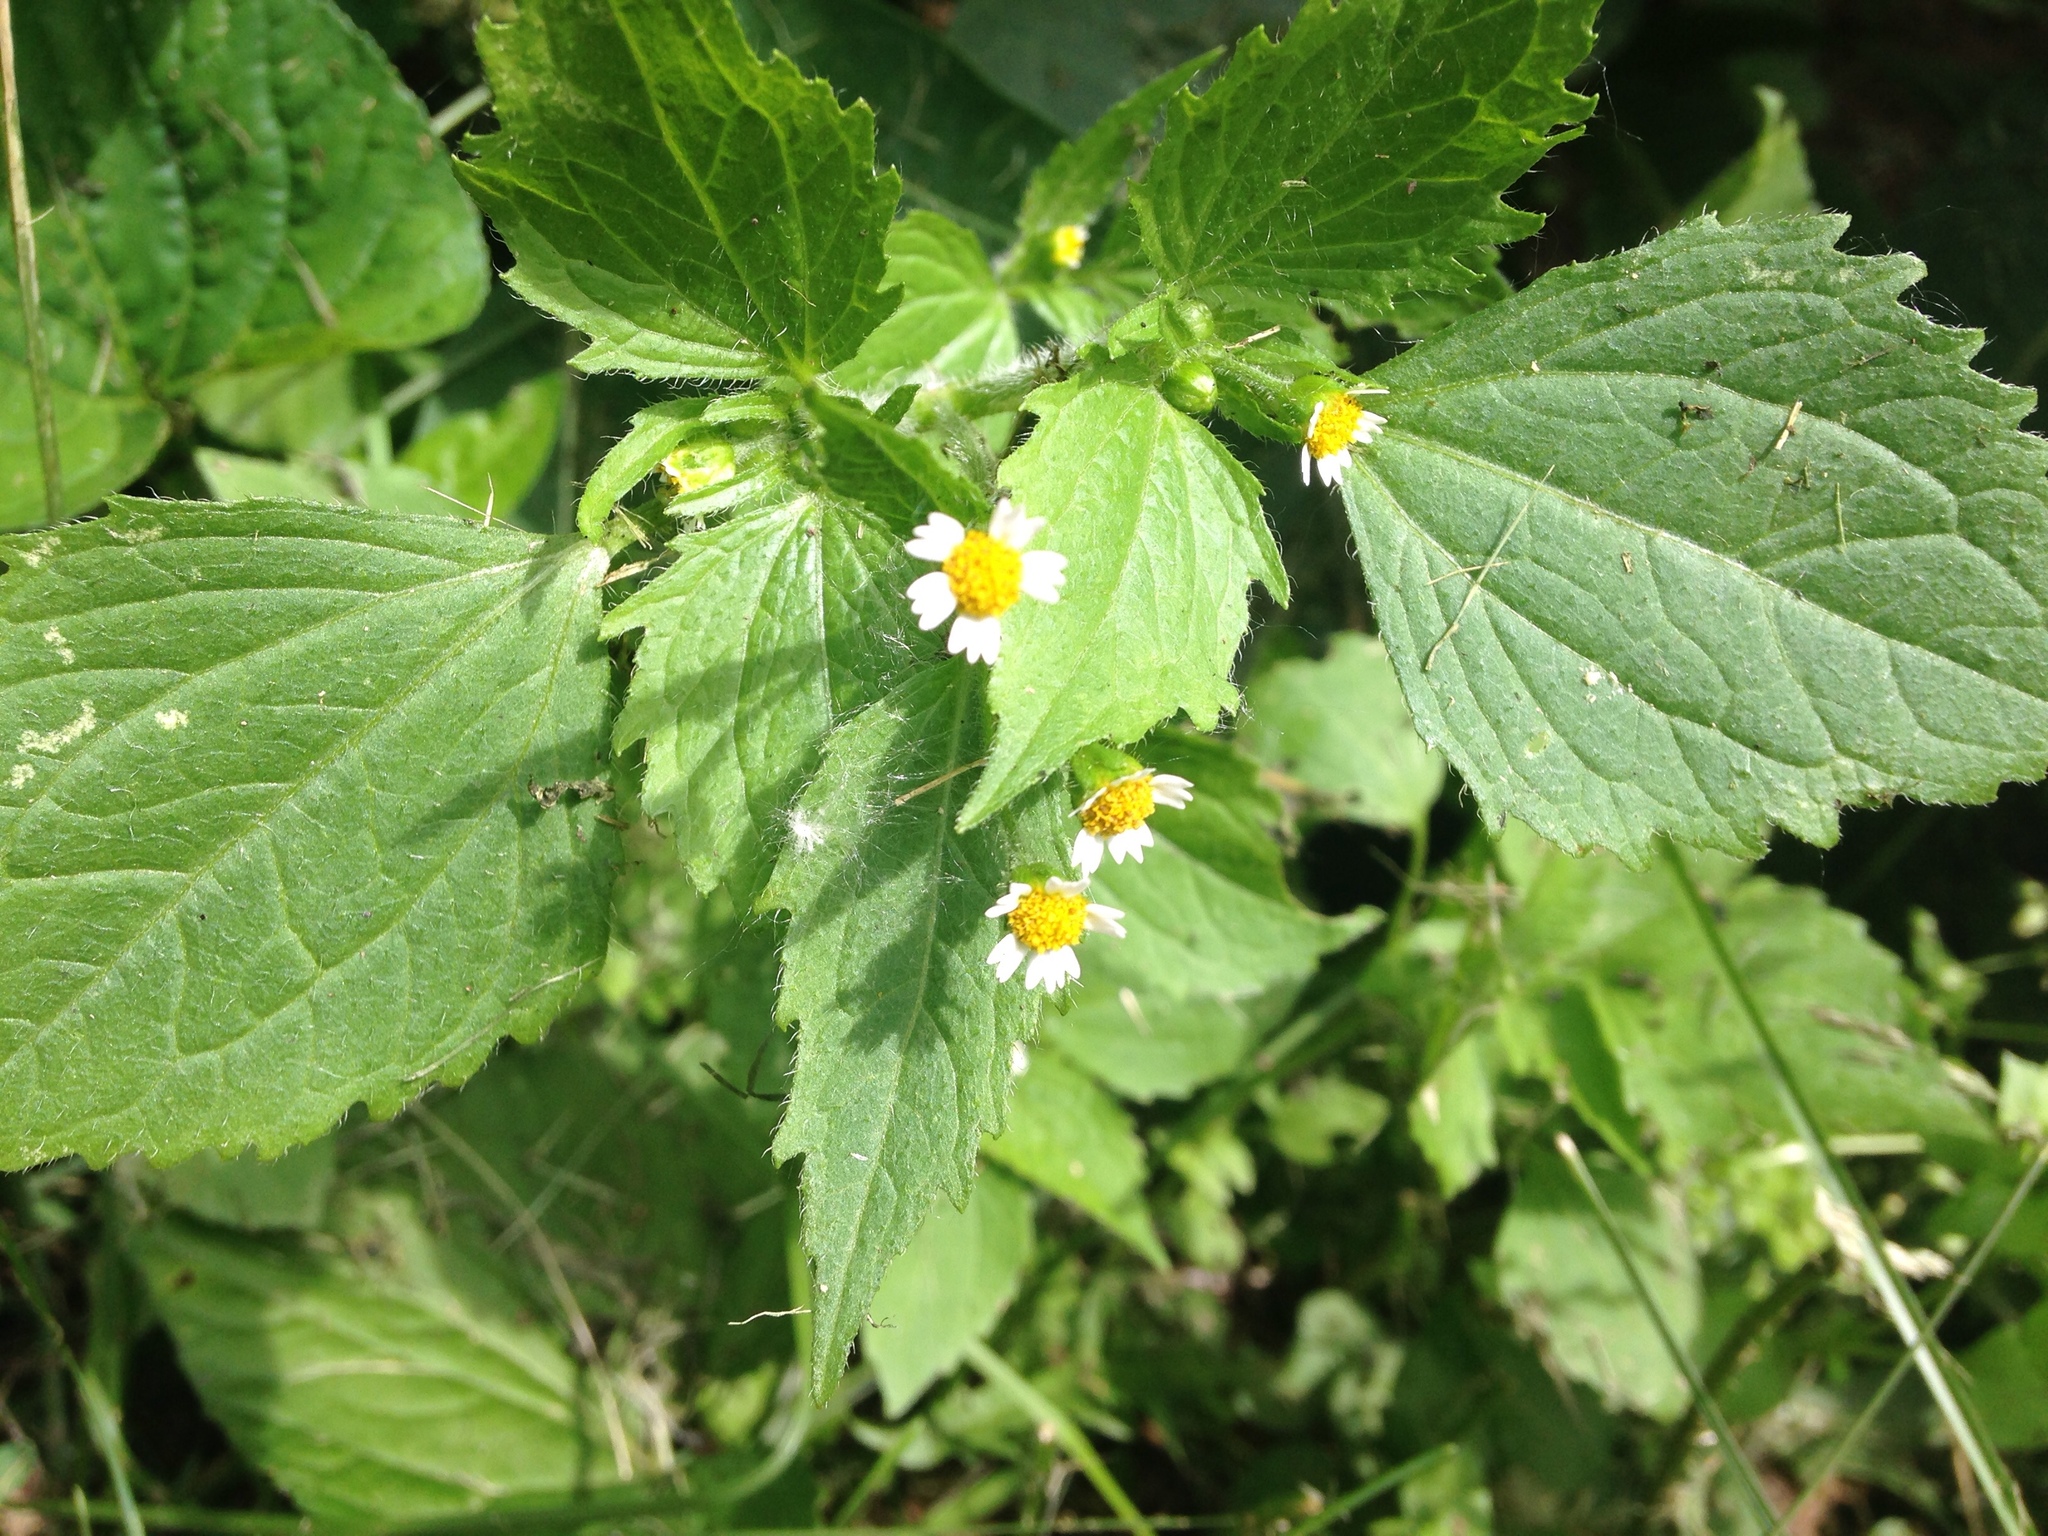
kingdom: Plantae
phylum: Tracheophyta
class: Magnoliopsida
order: Asterales
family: Asteraceae
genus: Galinsoga
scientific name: Galinsoga quadriradiata
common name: Shaggy soldier
